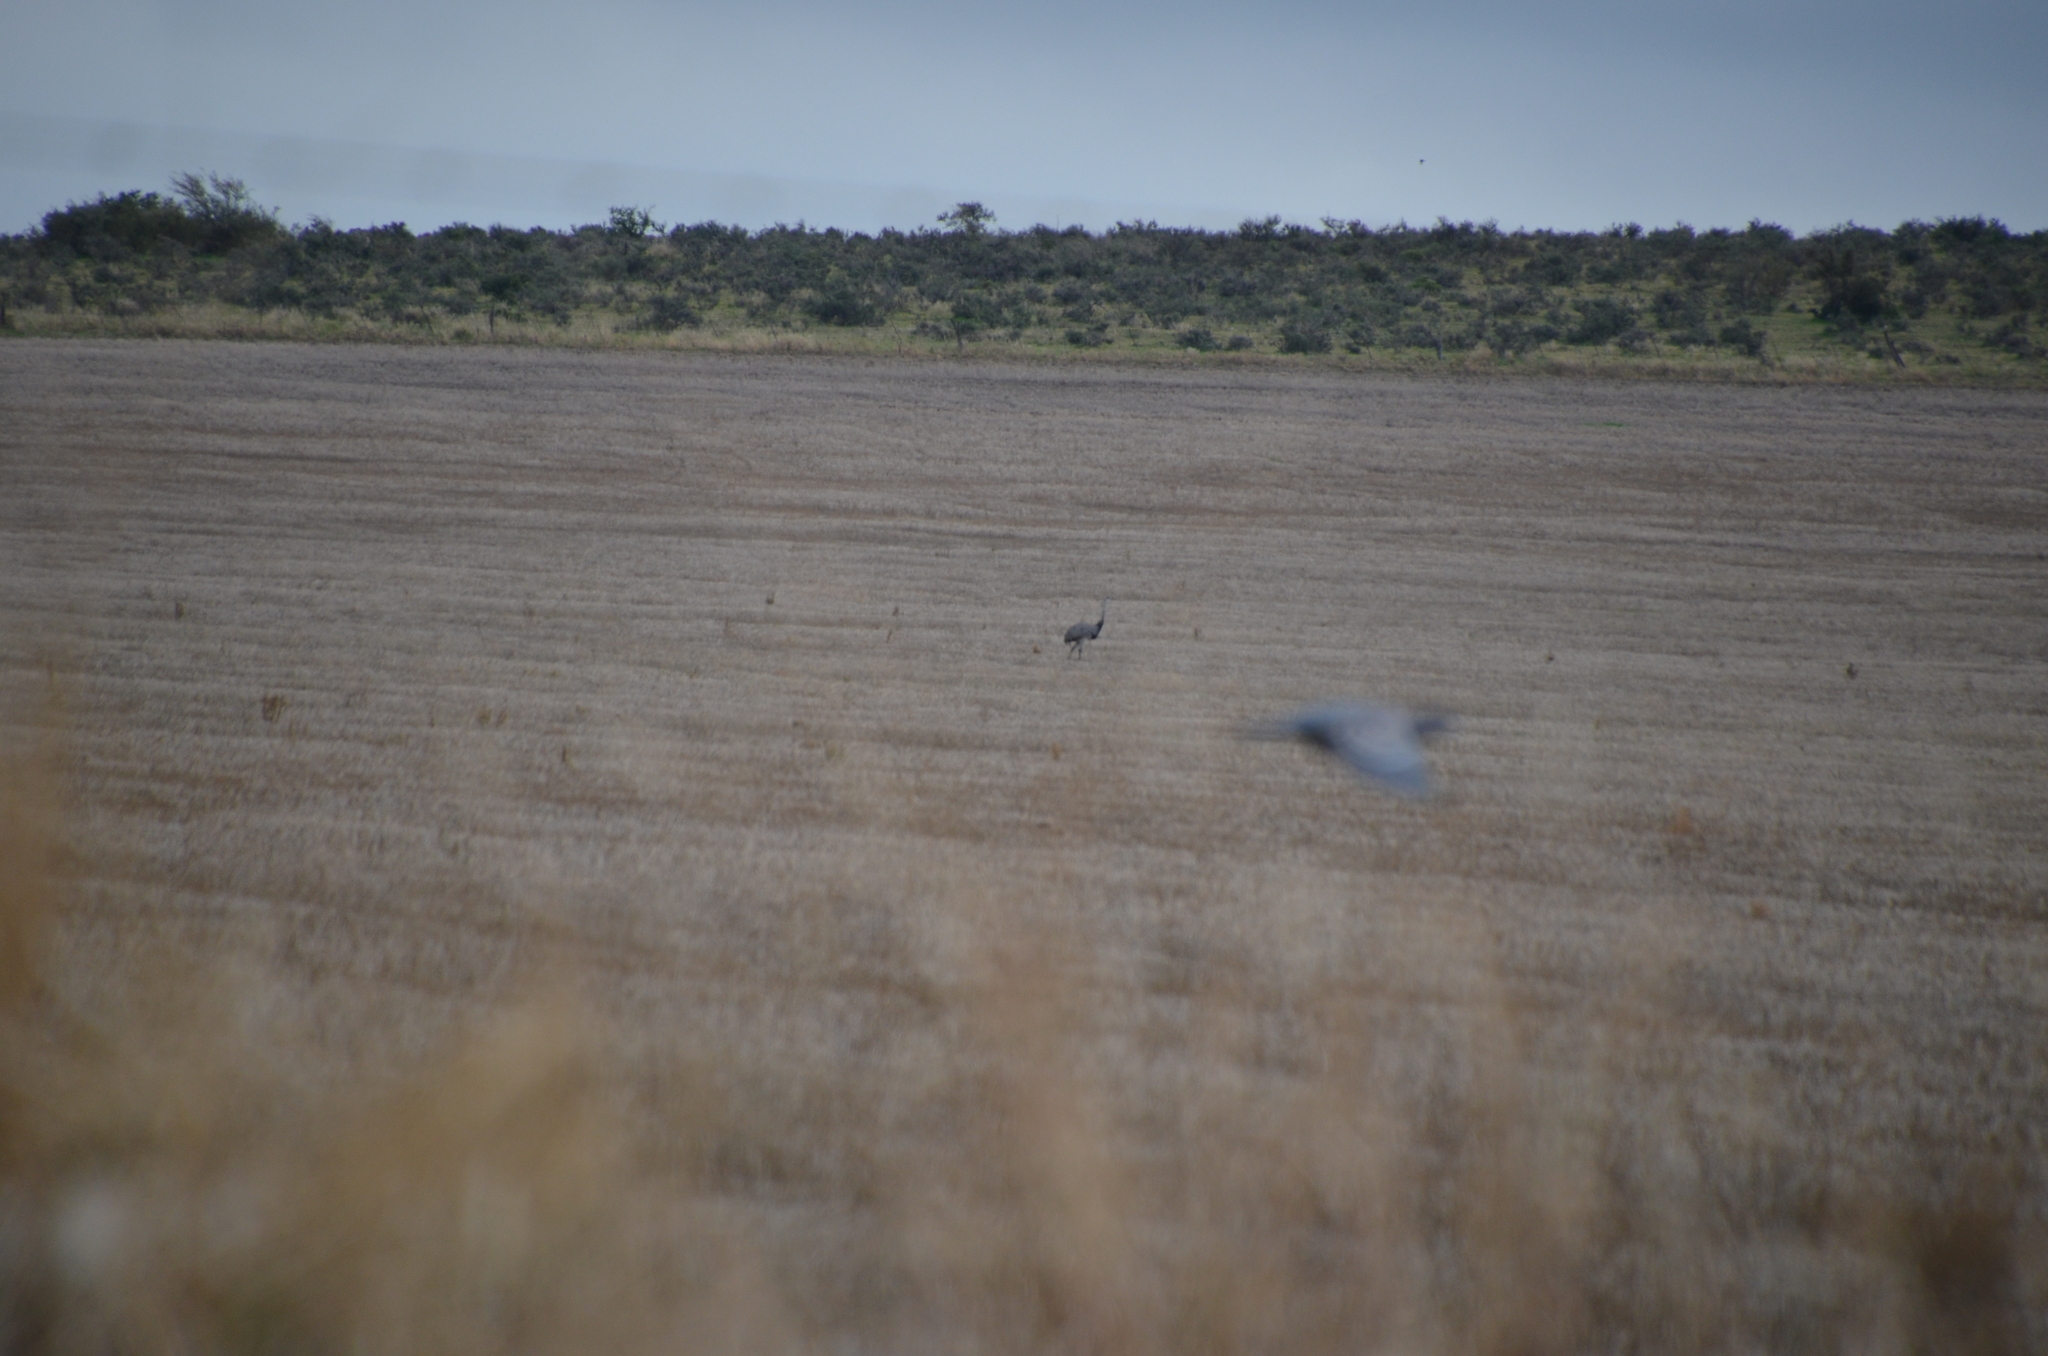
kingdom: Animalia
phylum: Chordata
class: Aves
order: Rheiformes
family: Rheidae
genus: Rhea
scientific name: Rhea americana
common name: Greater rhea
